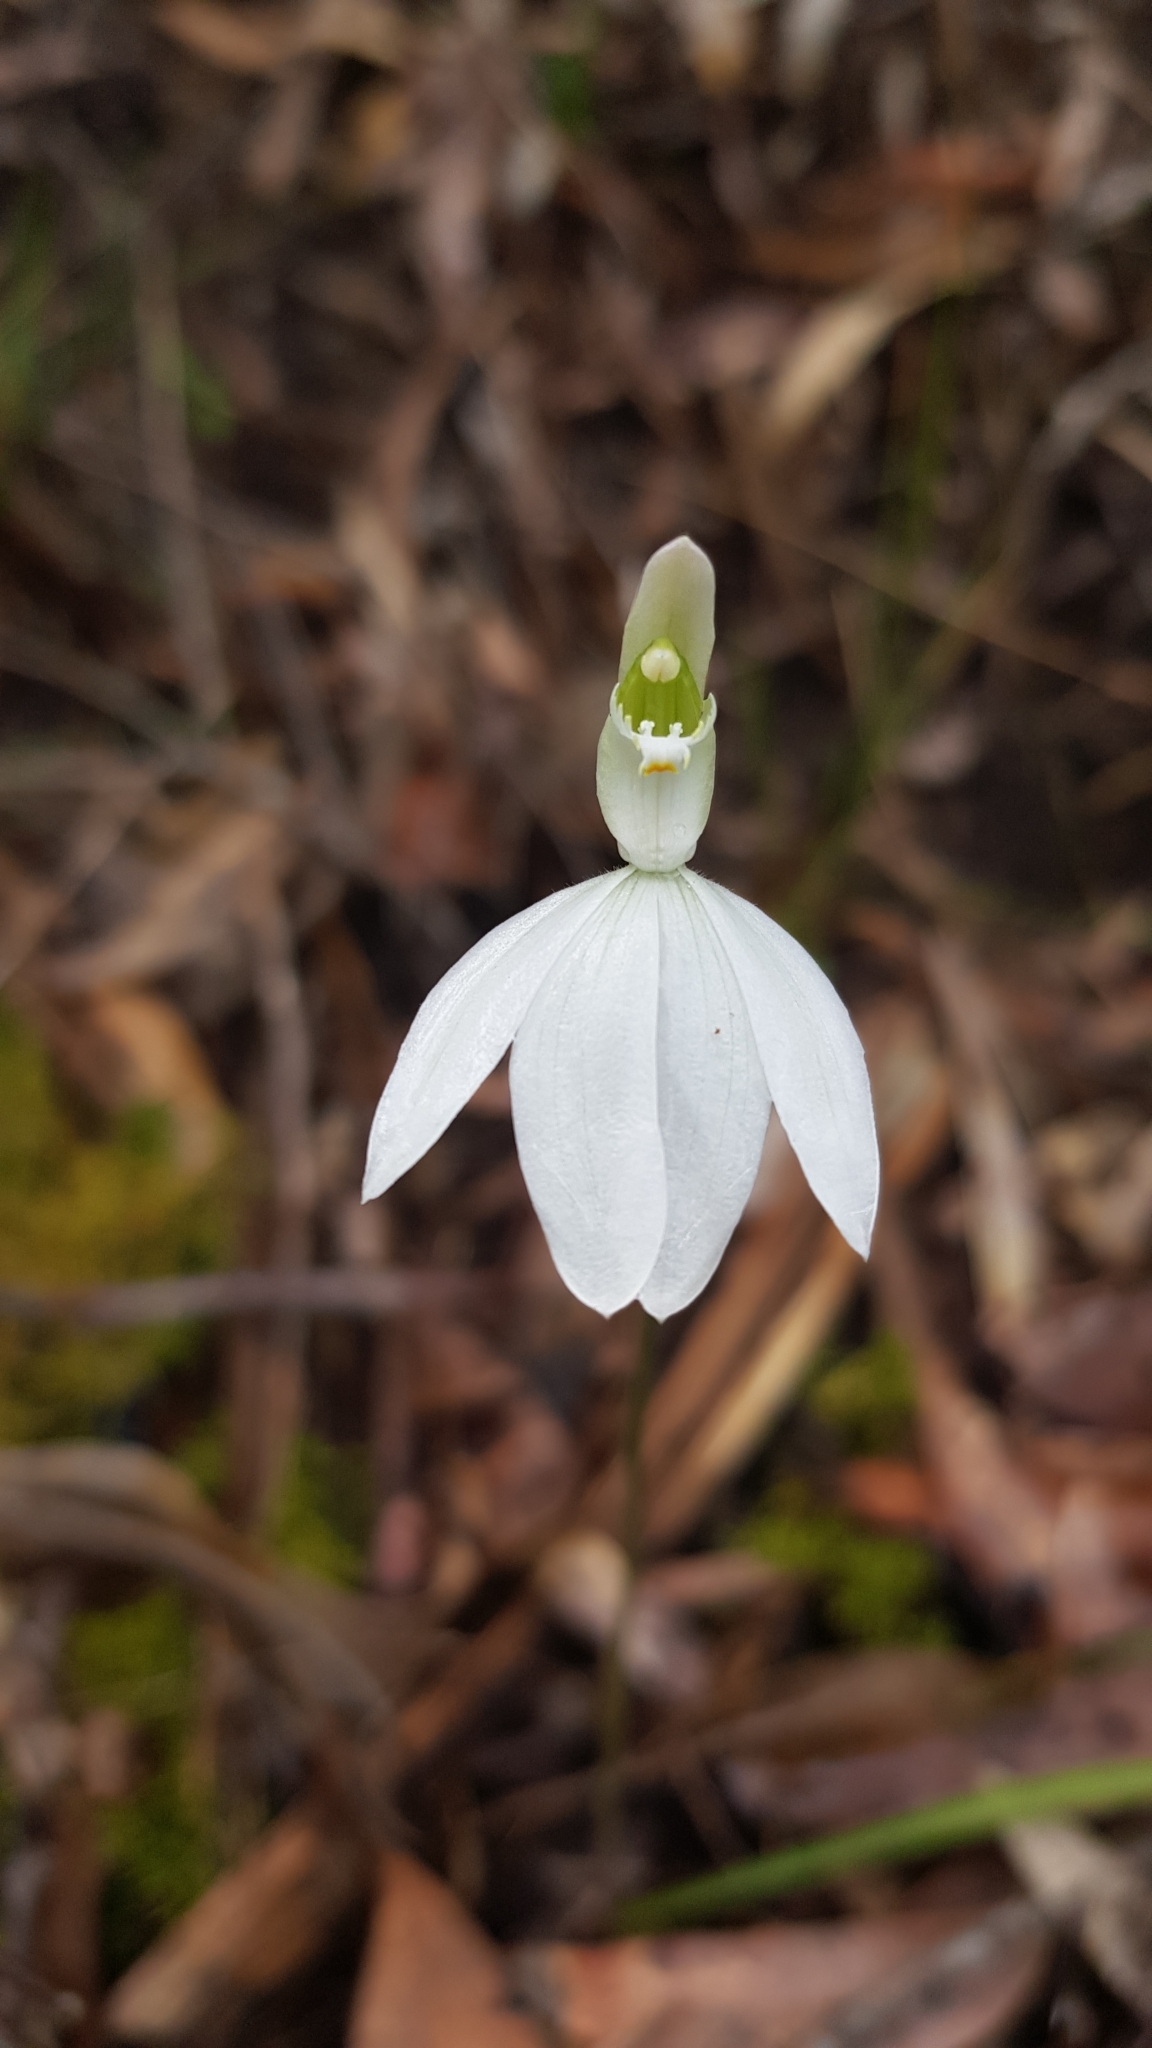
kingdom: Plantae
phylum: Tracheophyta
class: Liliopsida
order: Asparagales
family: Orchidaceae
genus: Caladenia
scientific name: Caladenia catenata
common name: White caladenia
